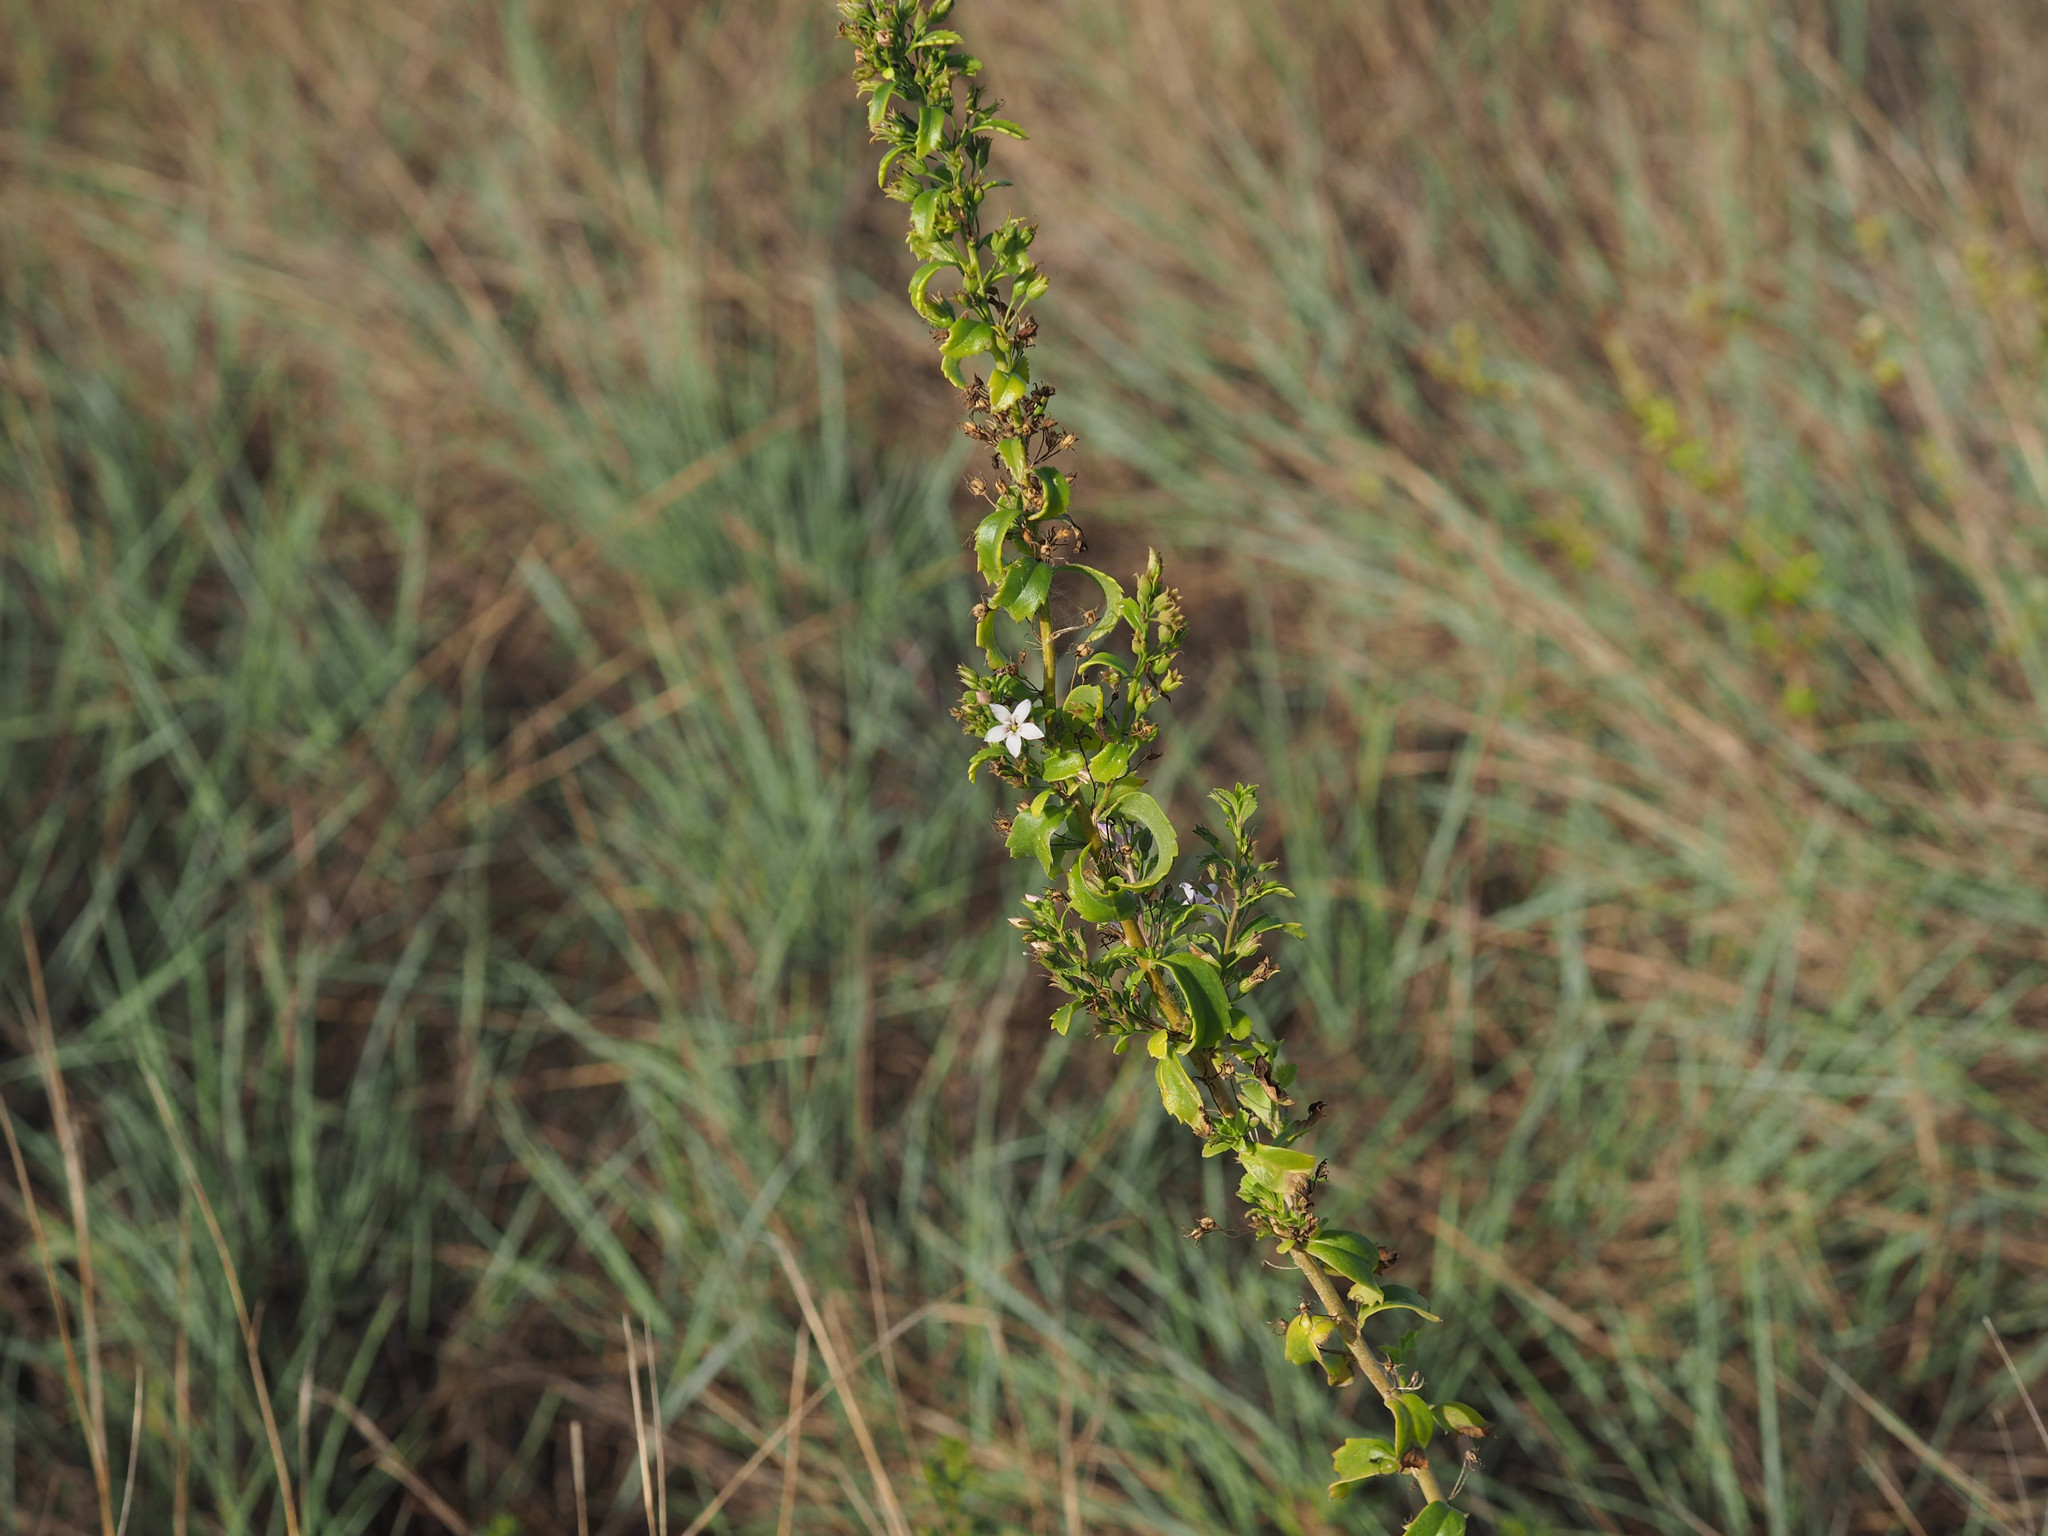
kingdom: Plantae
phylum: Tracheophyta
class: Magnoliopsida
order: Lamiales
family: Scrophulariaceae
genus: Capraria
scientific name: Capraria biflora
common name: Goatweed
